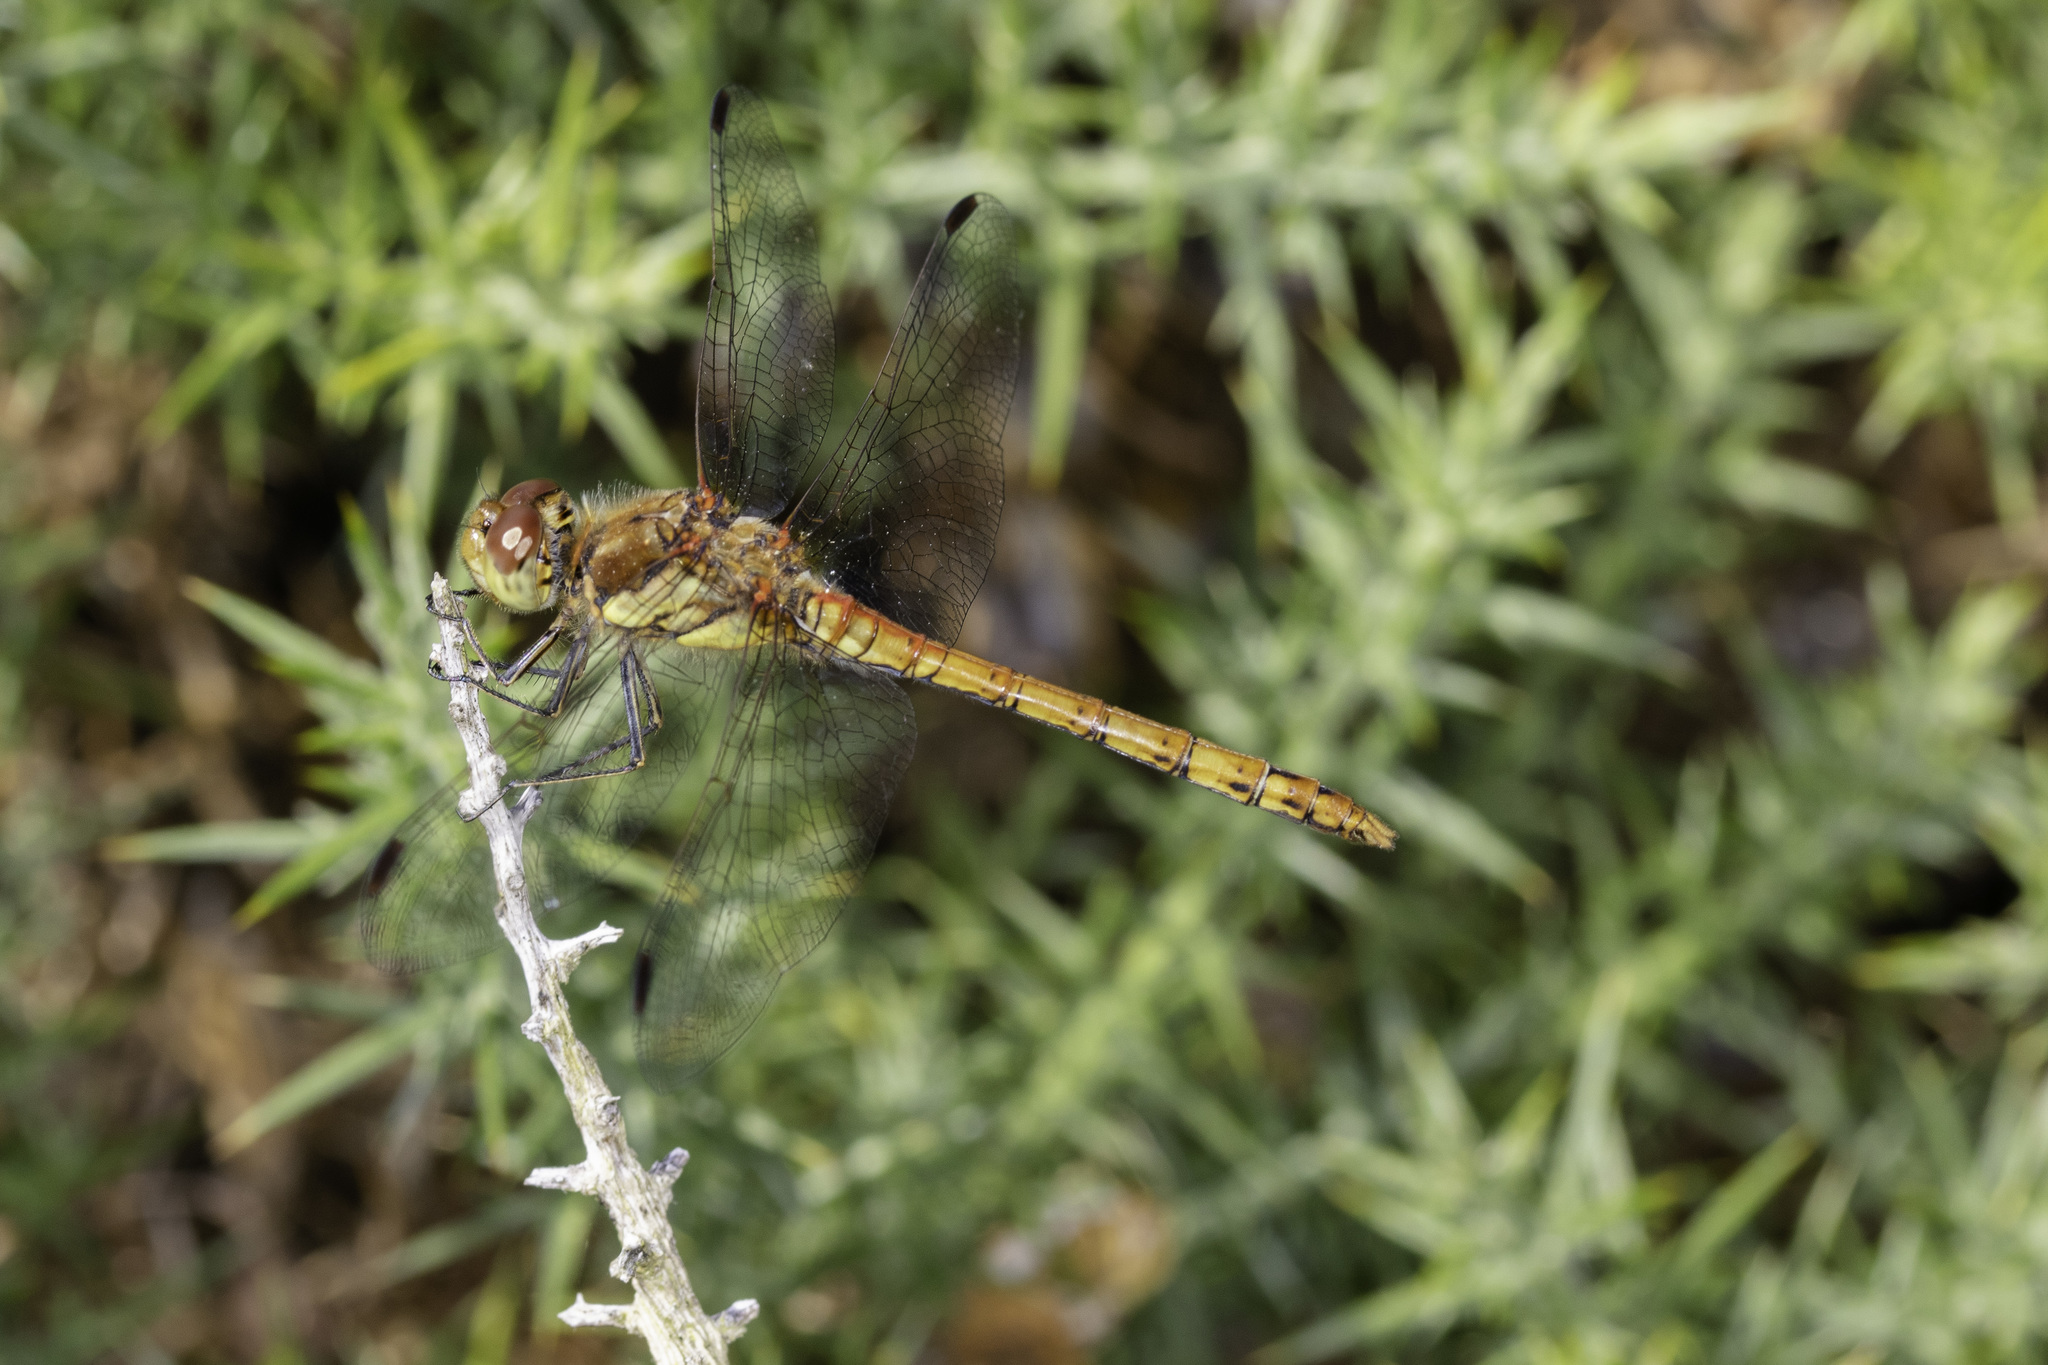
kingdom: Animalia
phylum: Arthropoda
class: Insecta
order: Odonata
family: Libellulidae
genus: Sympetrum
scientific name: Sympetrum striolatum
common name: Common darter
